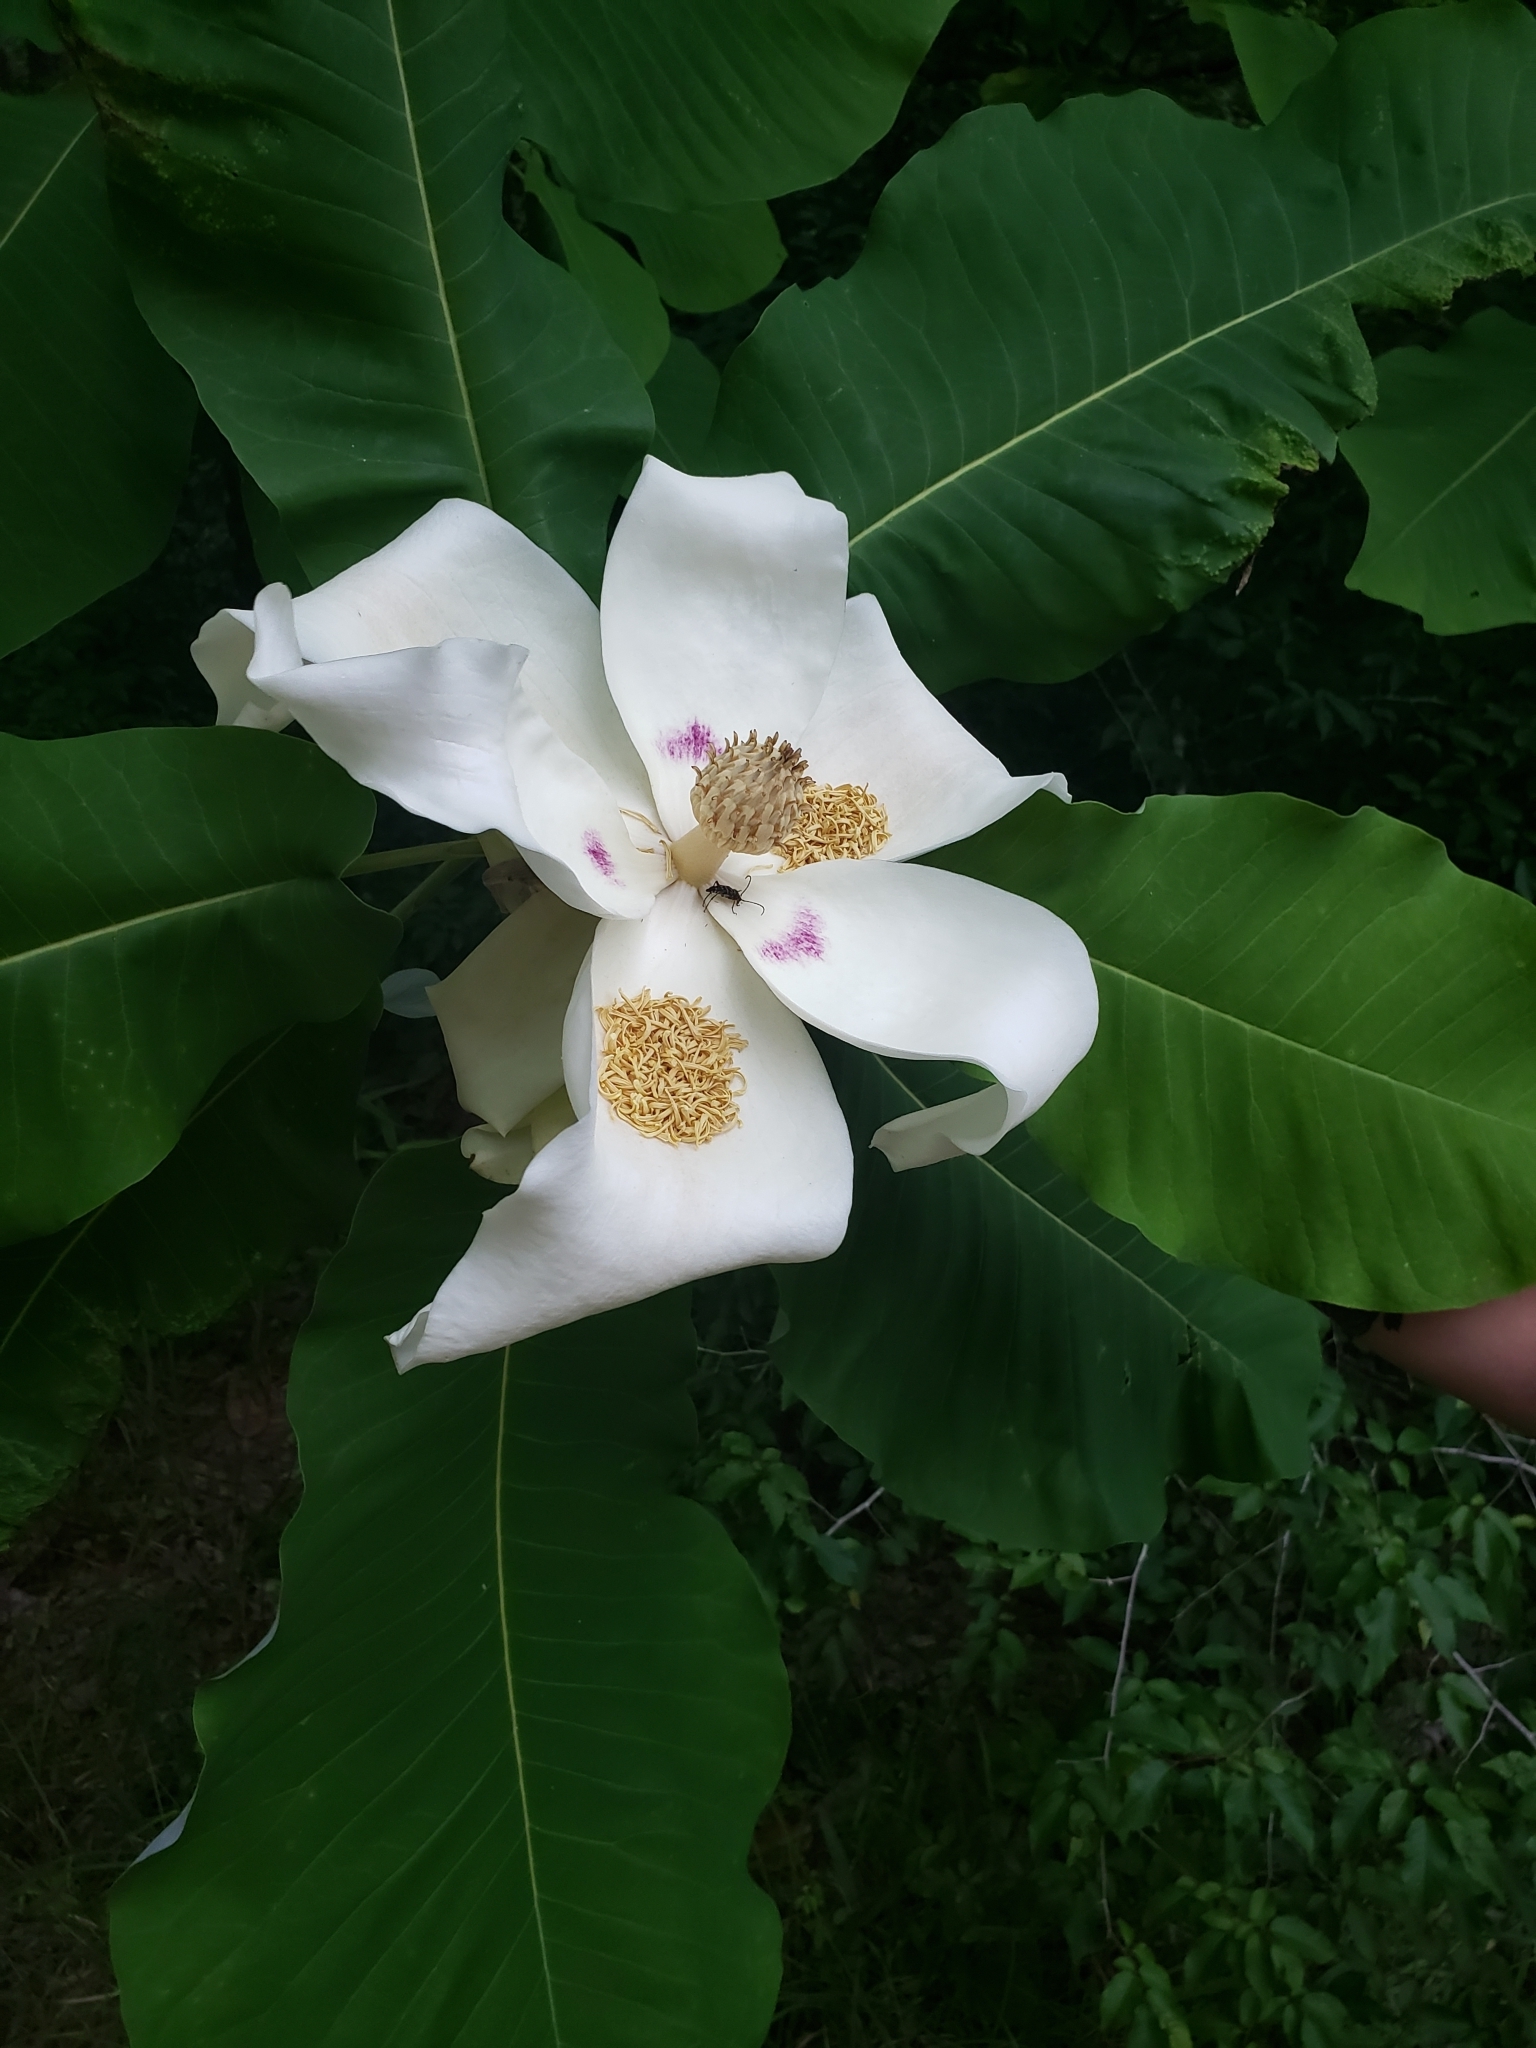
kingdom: Plantae
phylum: Tracheophyta
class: Magnoliopsida
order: Magnoliales
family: Magnoliaceae
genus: Magnolia
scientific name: Magnolia macrophylla
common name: Big-leaf magnolia
